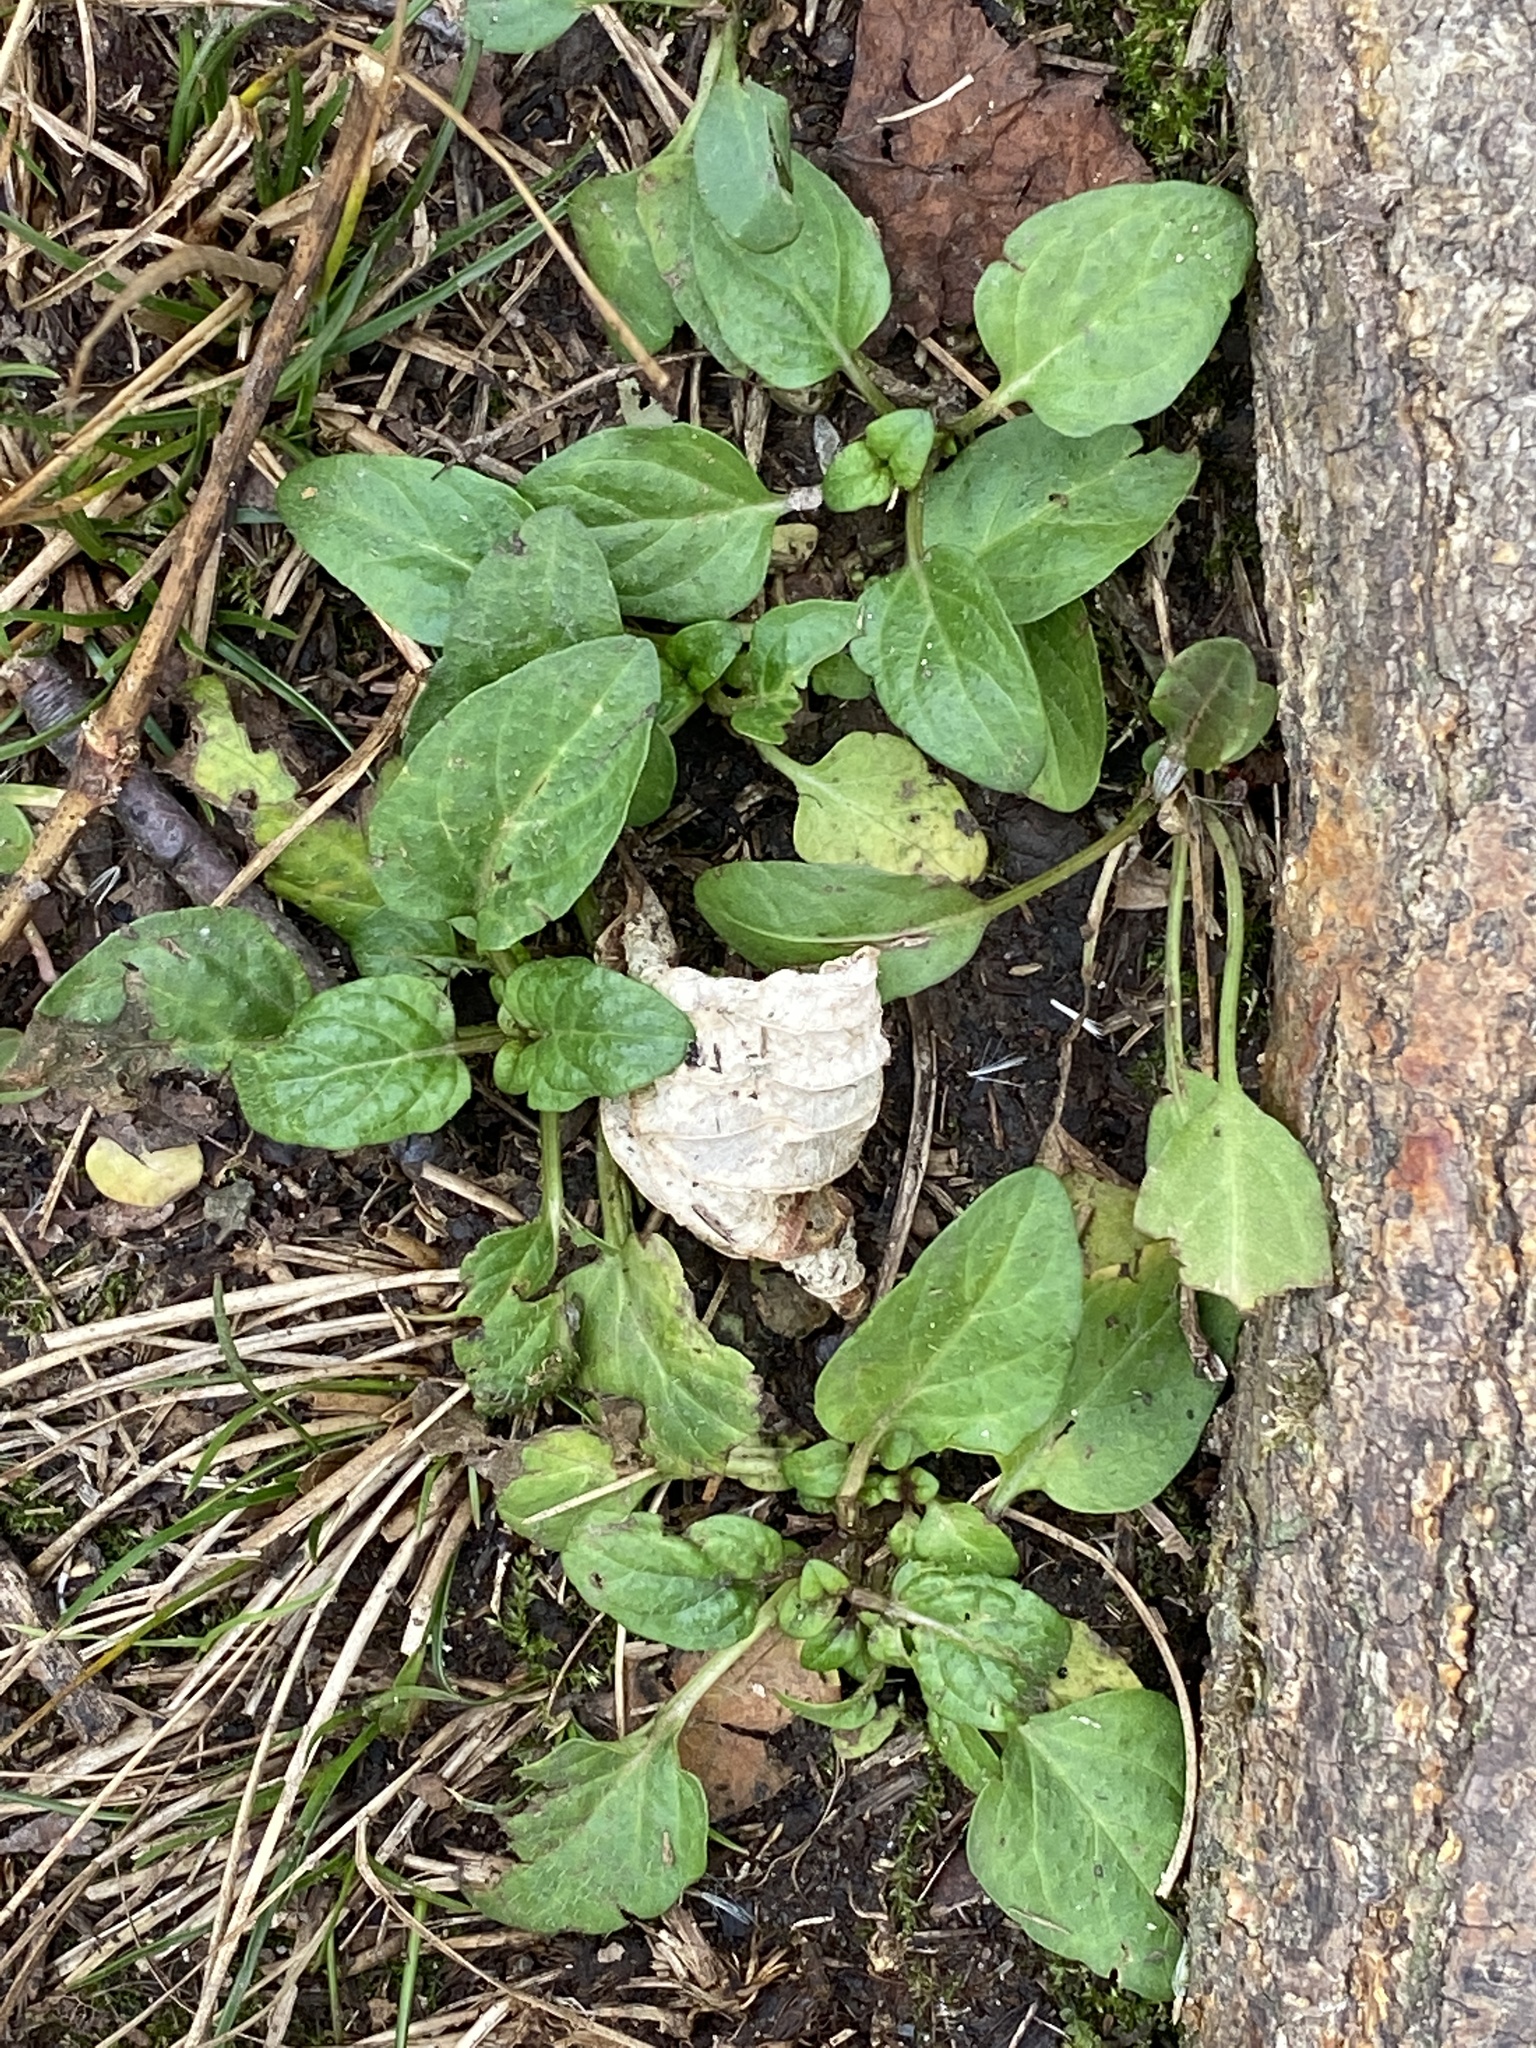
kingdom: Plantae
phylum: Tracheophyta
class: Magnoliopsida
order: Lamiales
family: Lamiaceae
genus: Prunella
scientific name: Prunella vulgaris
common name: Heal-all
